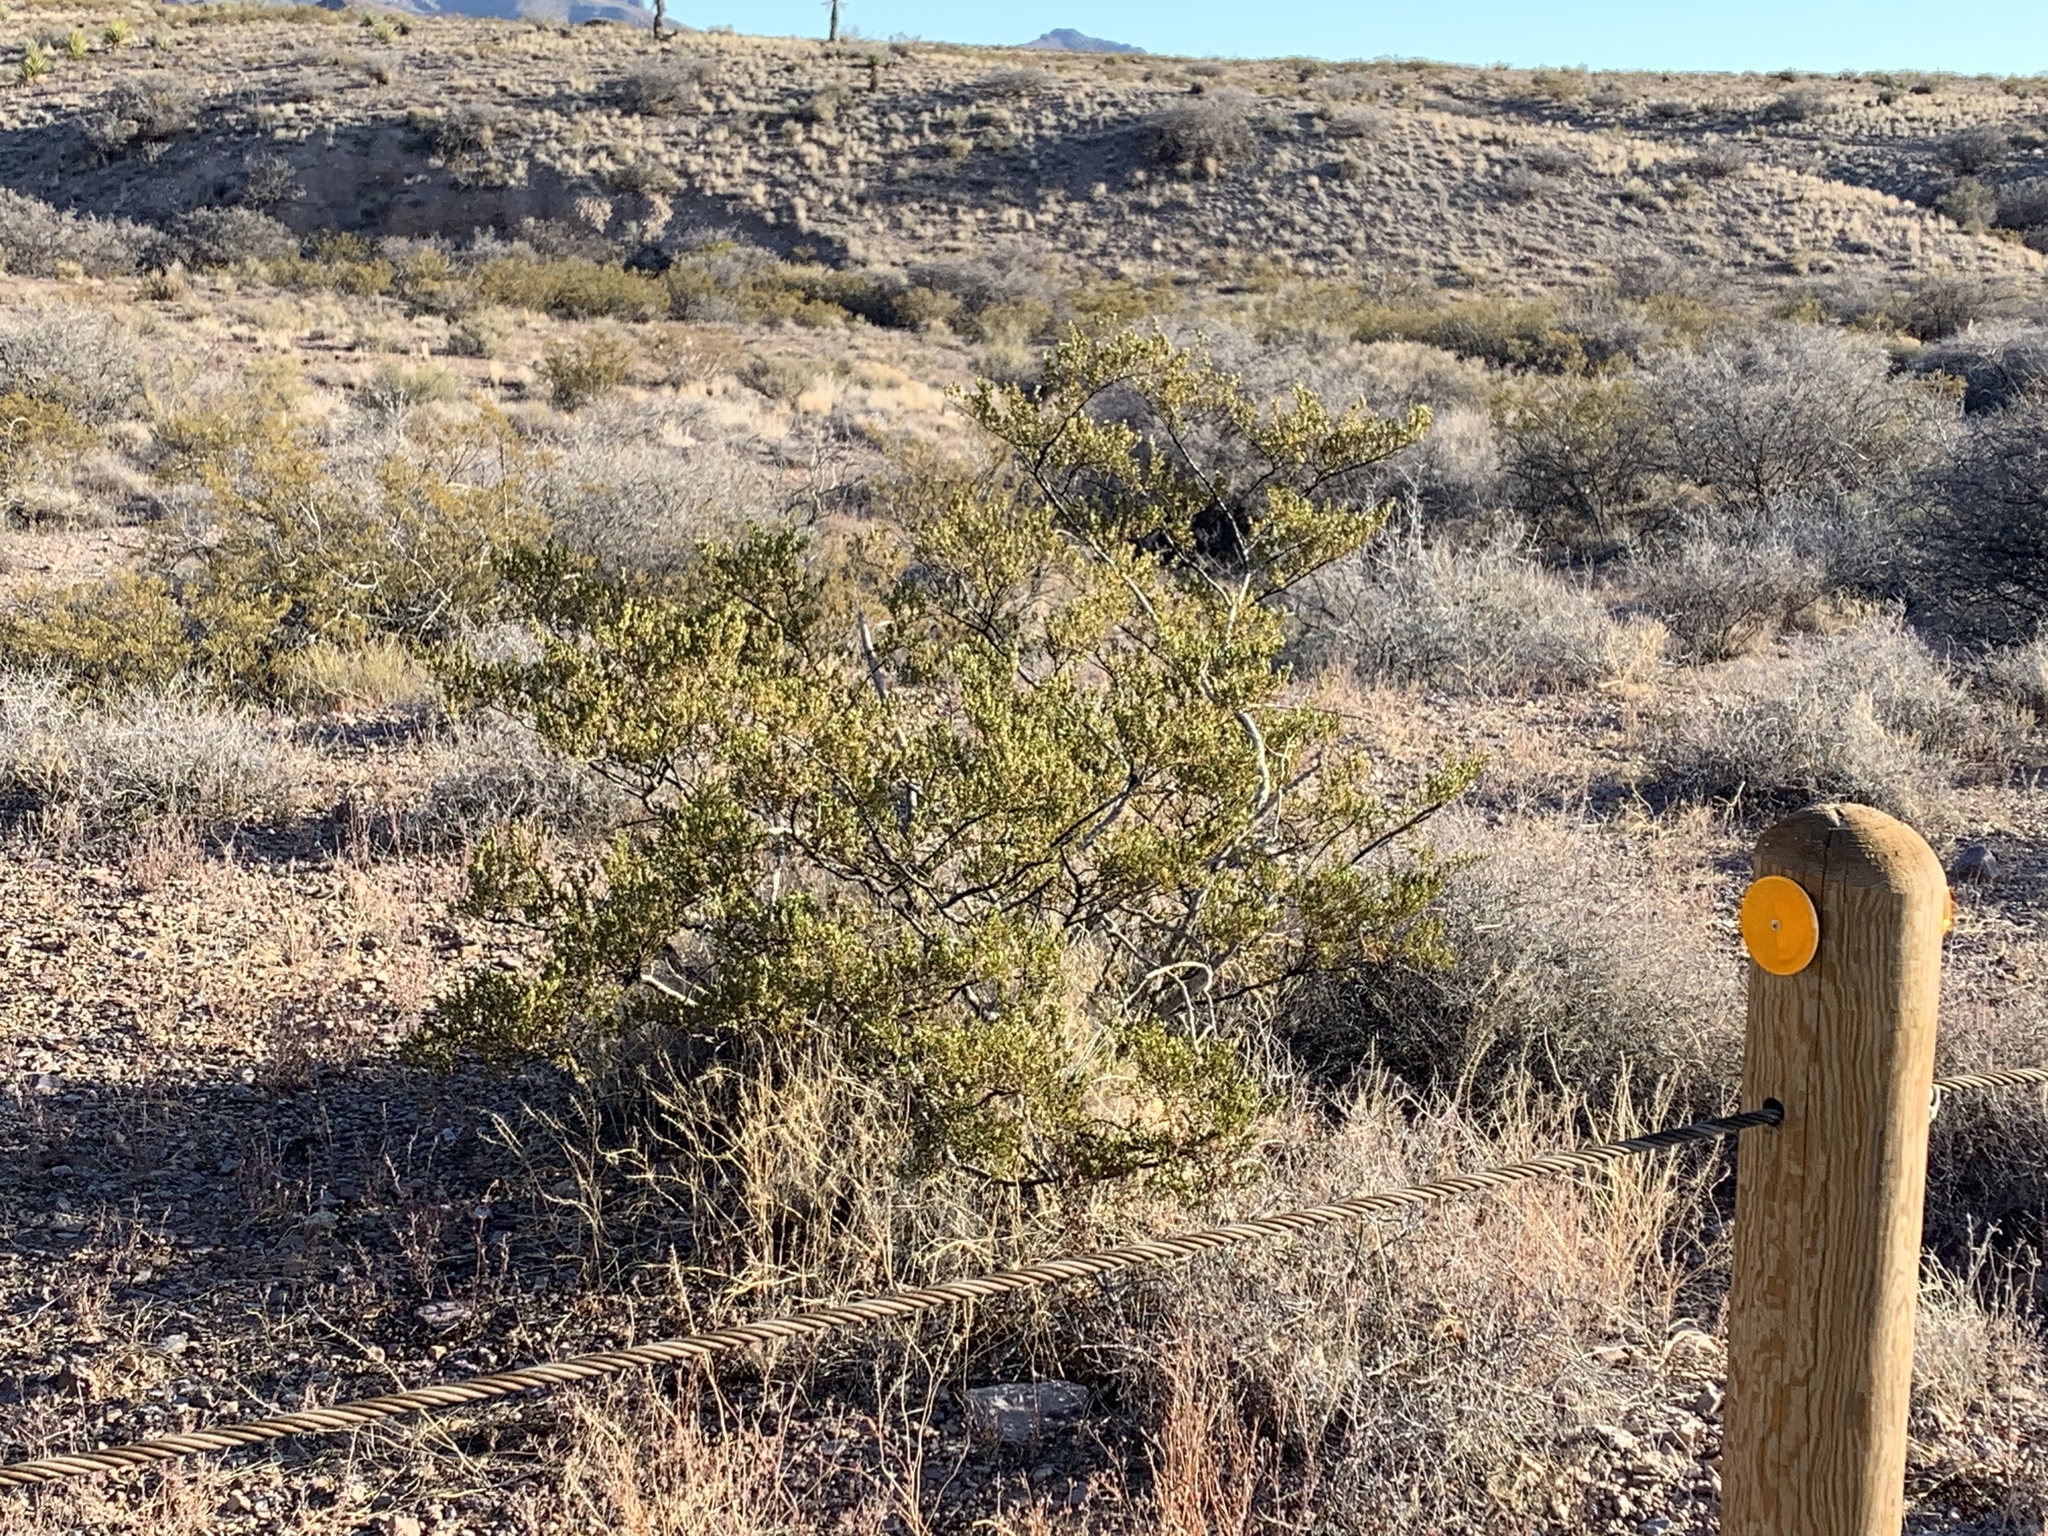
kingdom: Plantae
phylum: Tracheophyta
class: Magnoliopsida
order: Zygophyllales
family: Zygophyllaceae
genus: Larrea
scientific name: Larrea tridentata
